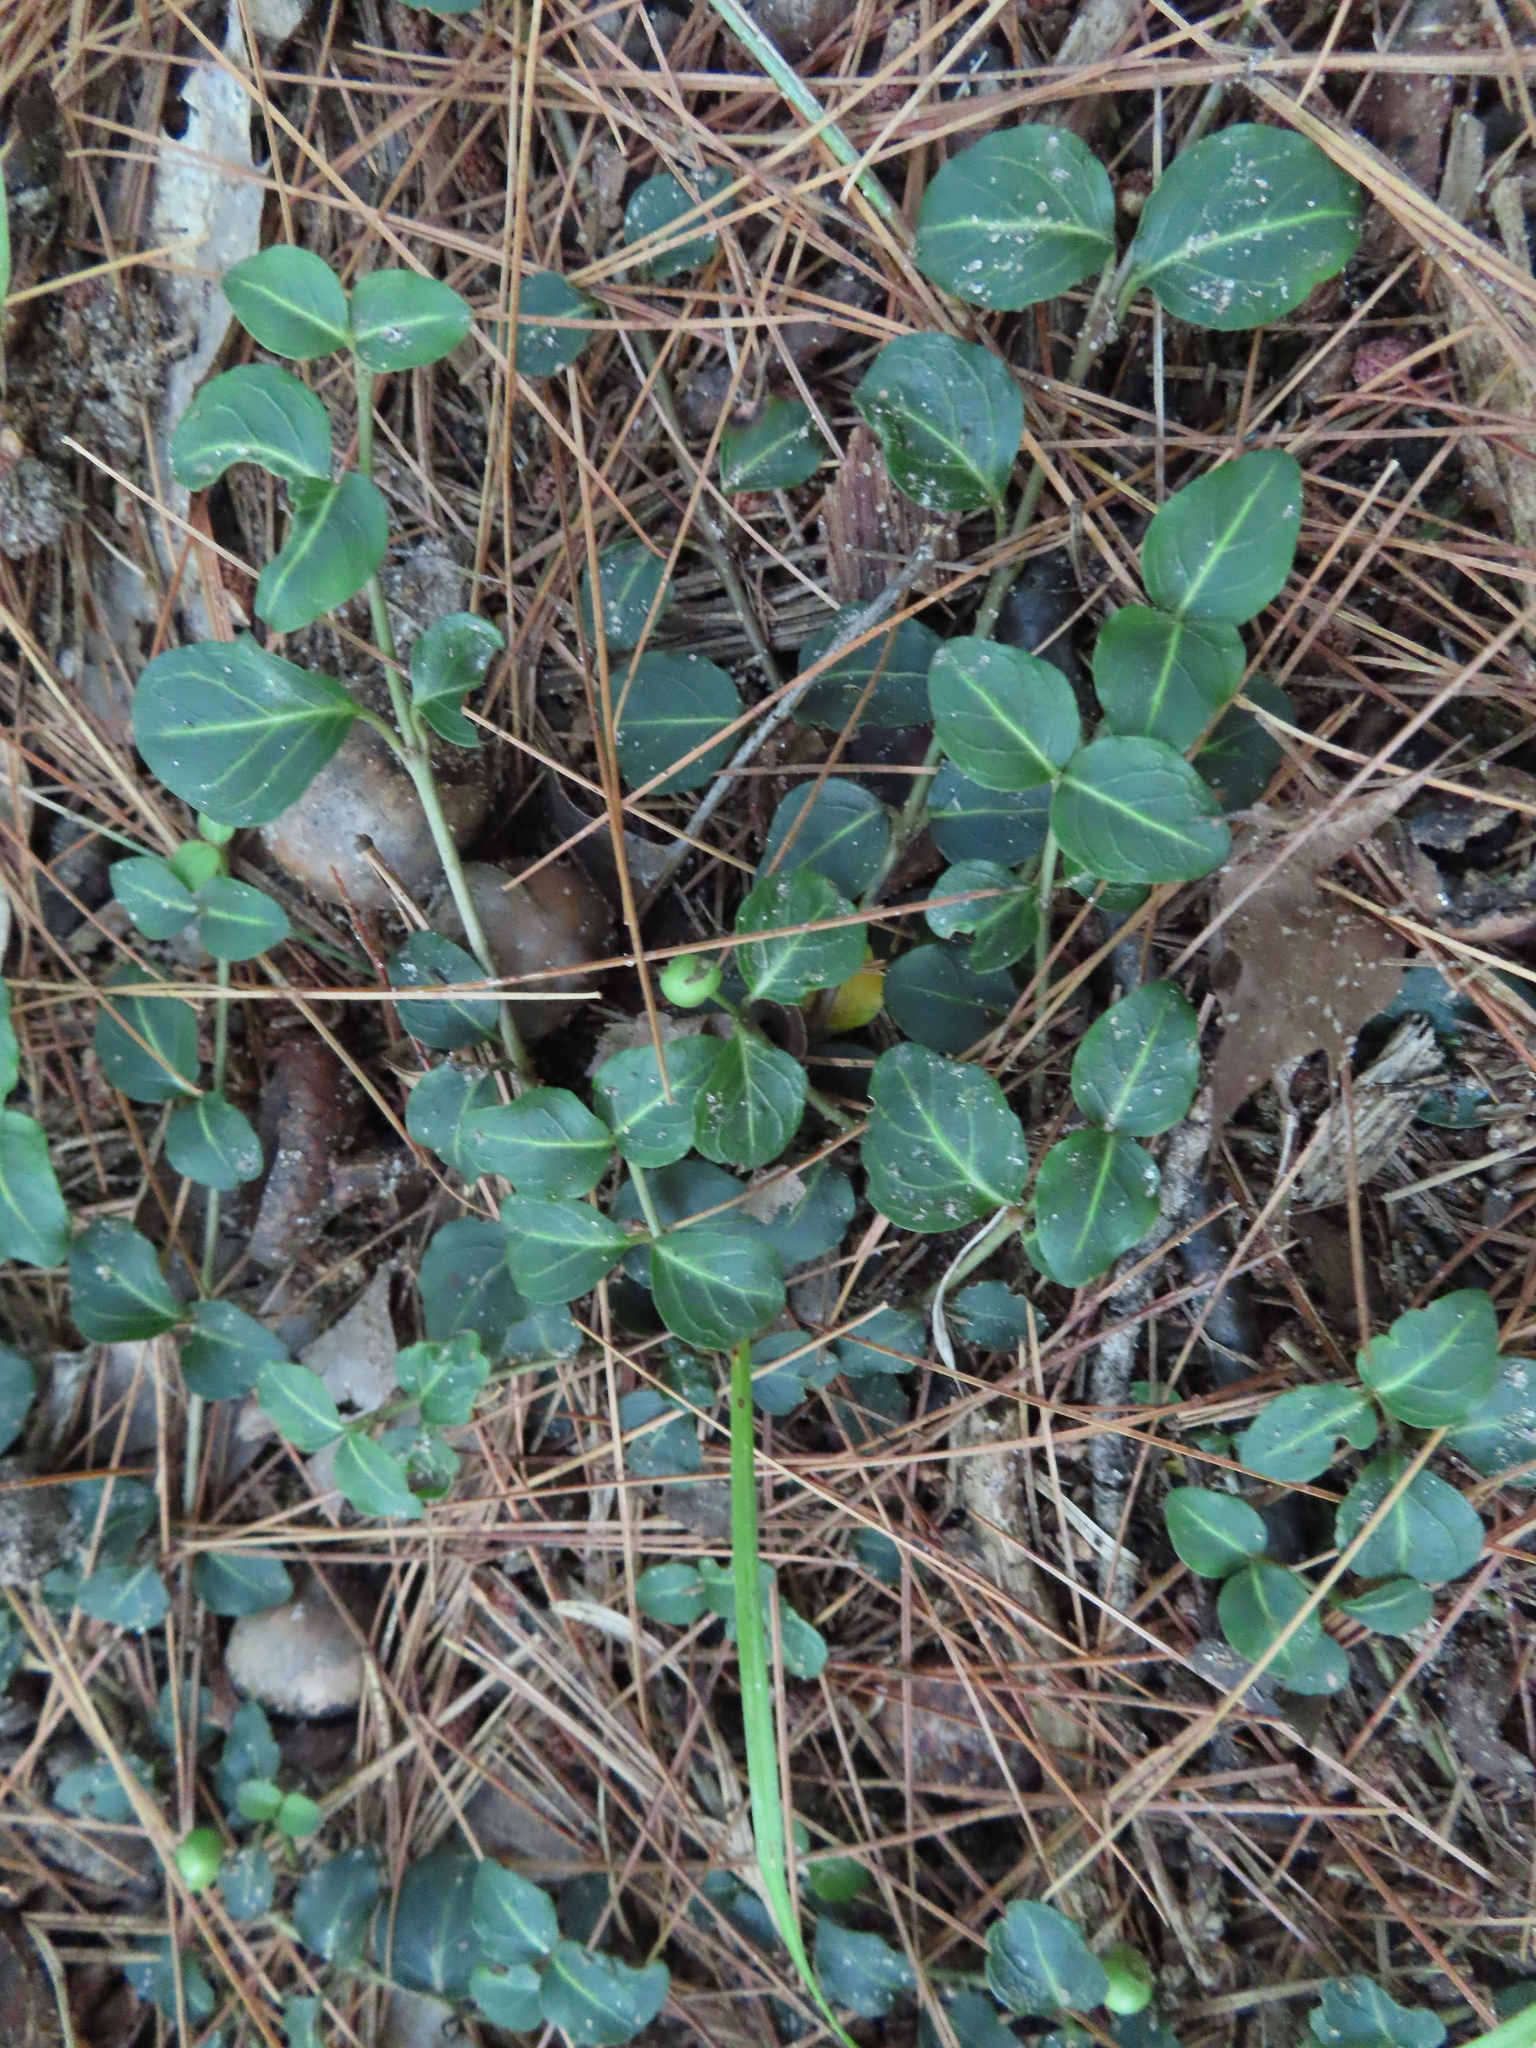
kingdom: Plantae
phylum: Tracheophyta
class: Magnoliopsida
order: Gentianales
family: Rubiaceae
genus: Mitchella
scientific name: Mitchella repens
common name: Partridge-berry
